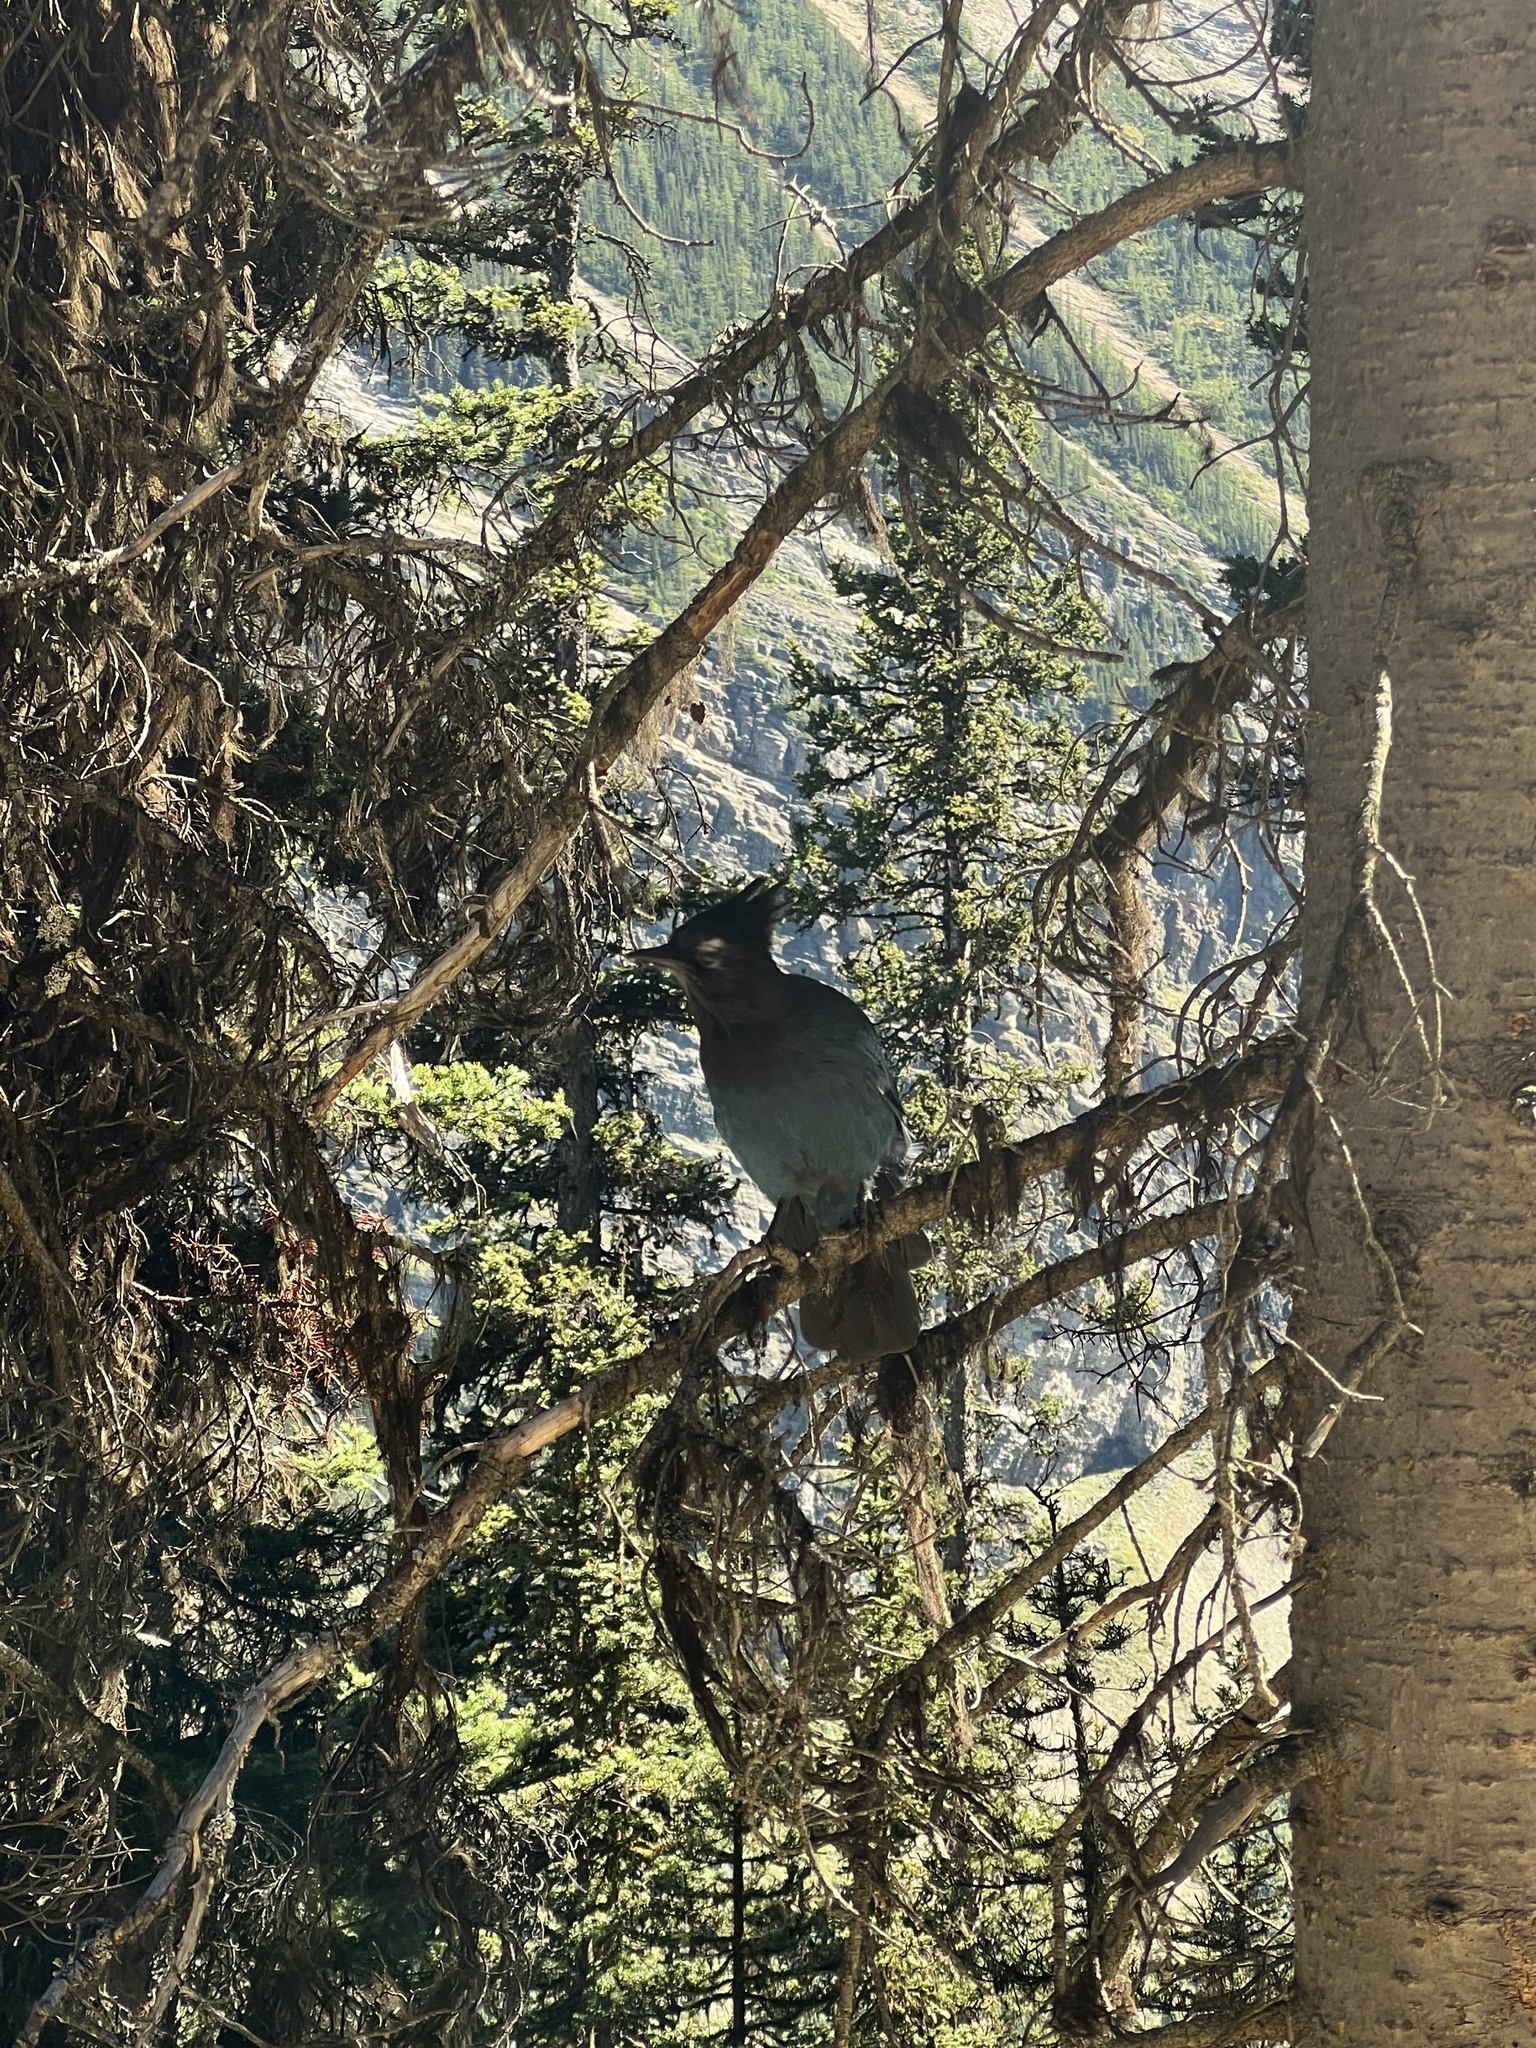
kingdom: Animalia
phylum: Chordata
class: Aves
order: Passeriformes
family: Corvidae
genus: Cyanocitta
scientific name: Cyanocitta stelleri
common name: Steller's jay
